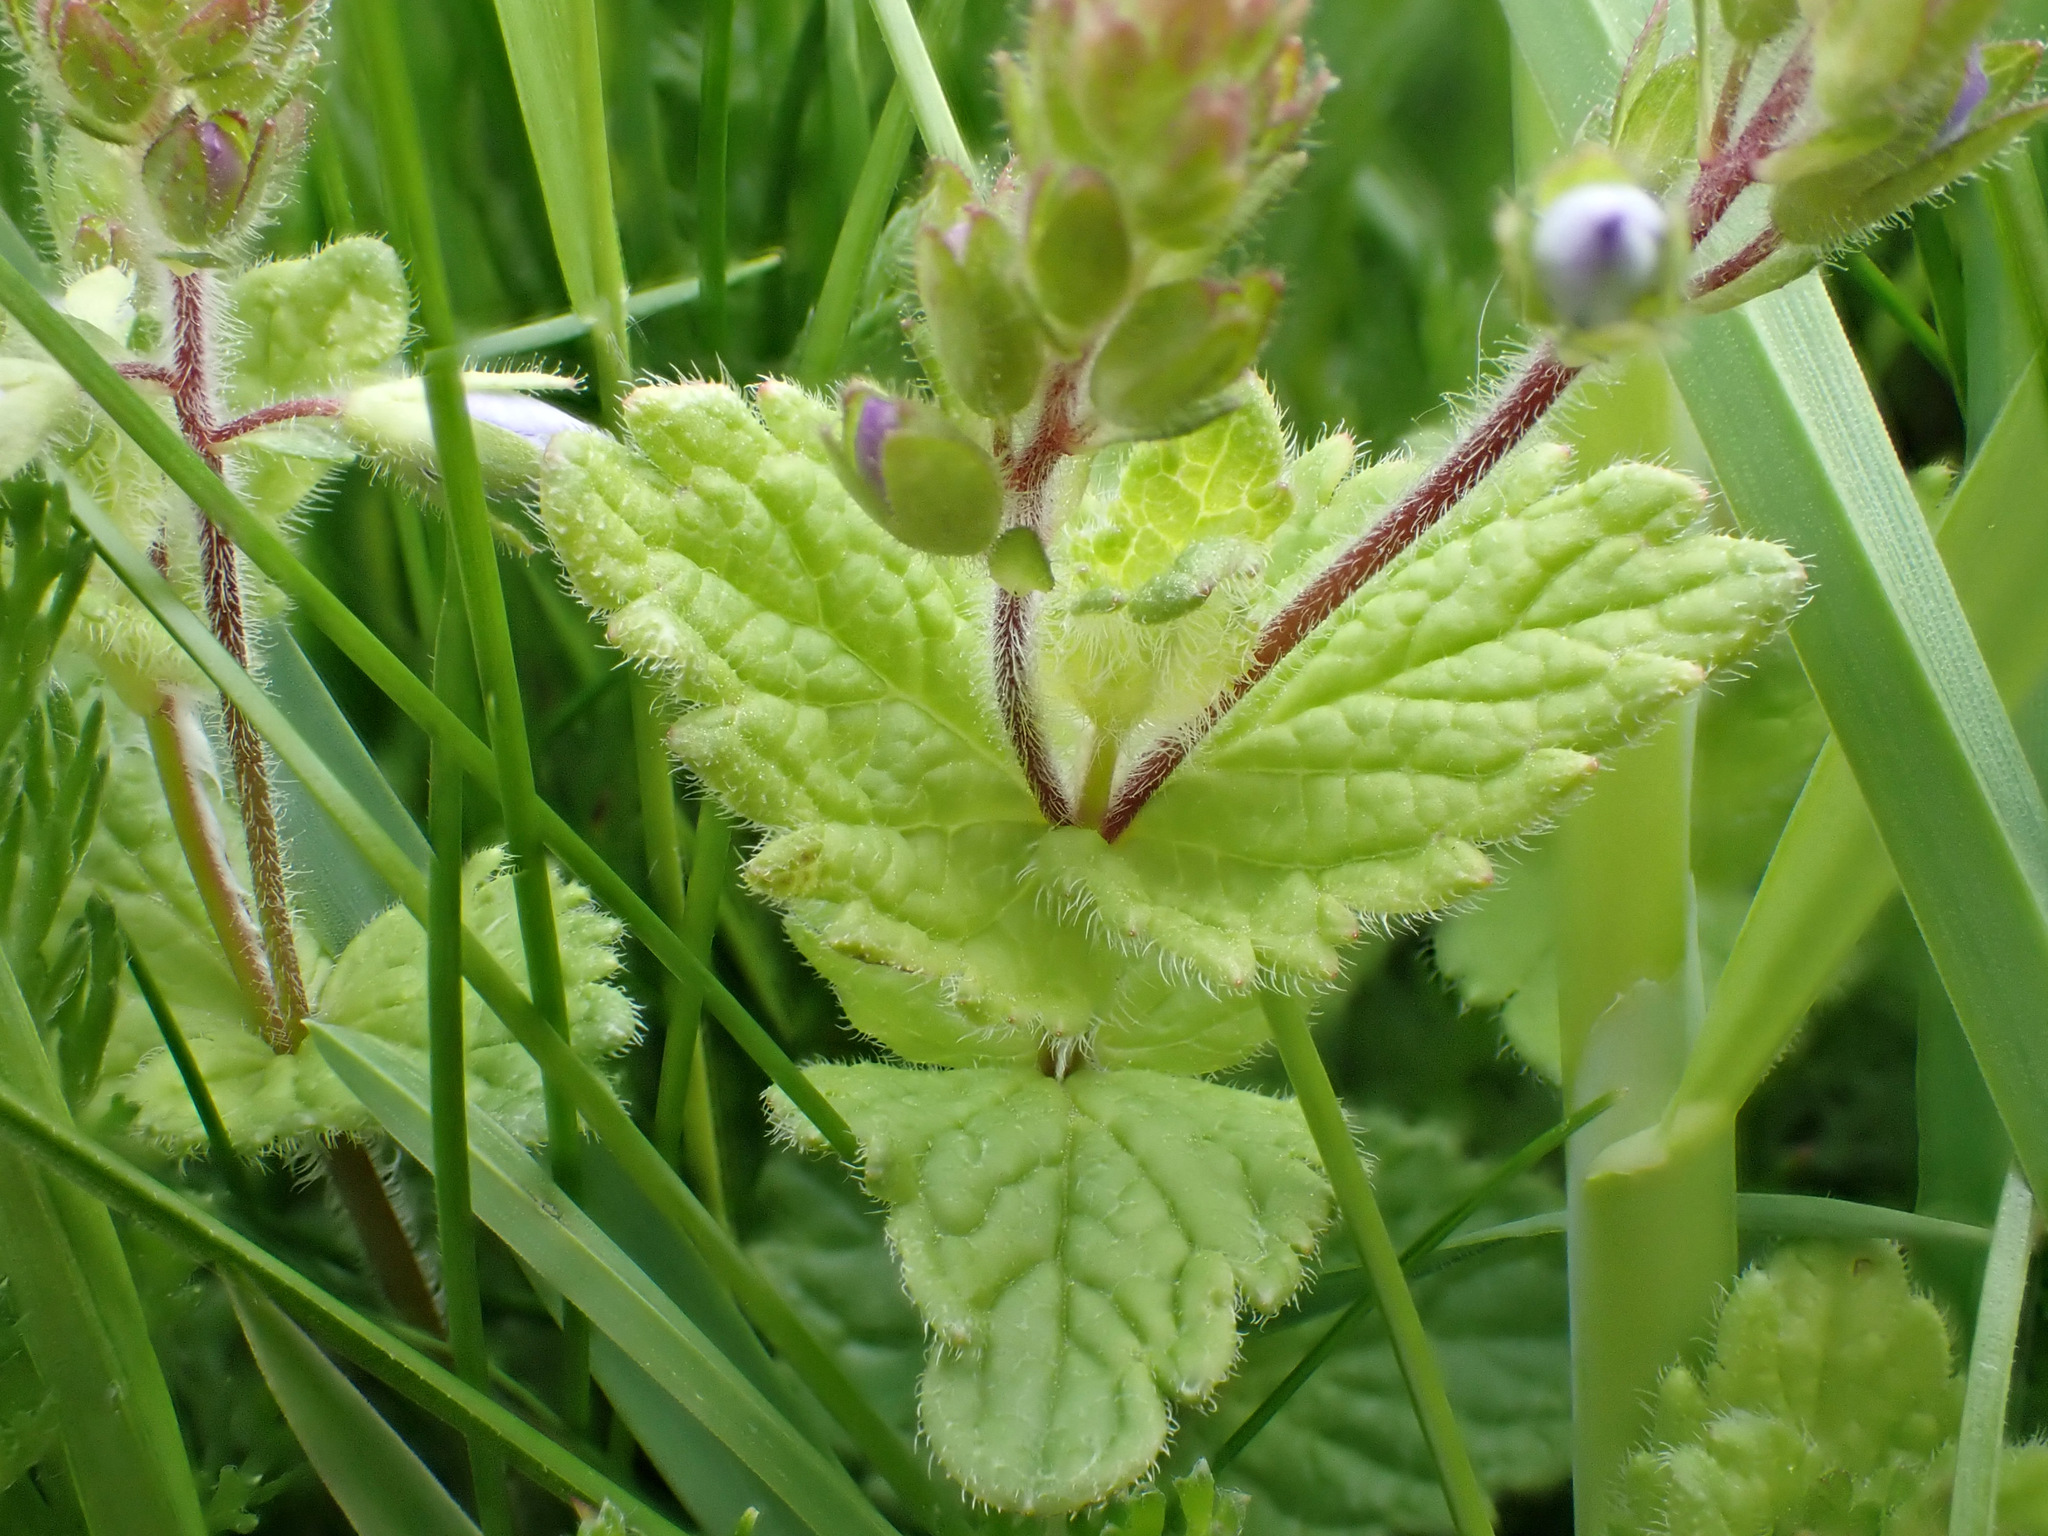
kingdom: Plantae
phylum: Tracheophyta
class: Magnoliopsida
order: Lamiales
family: Plantaginaceae
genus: Veronica
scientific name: Veronica chamaedrys
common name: Germander speedwell
